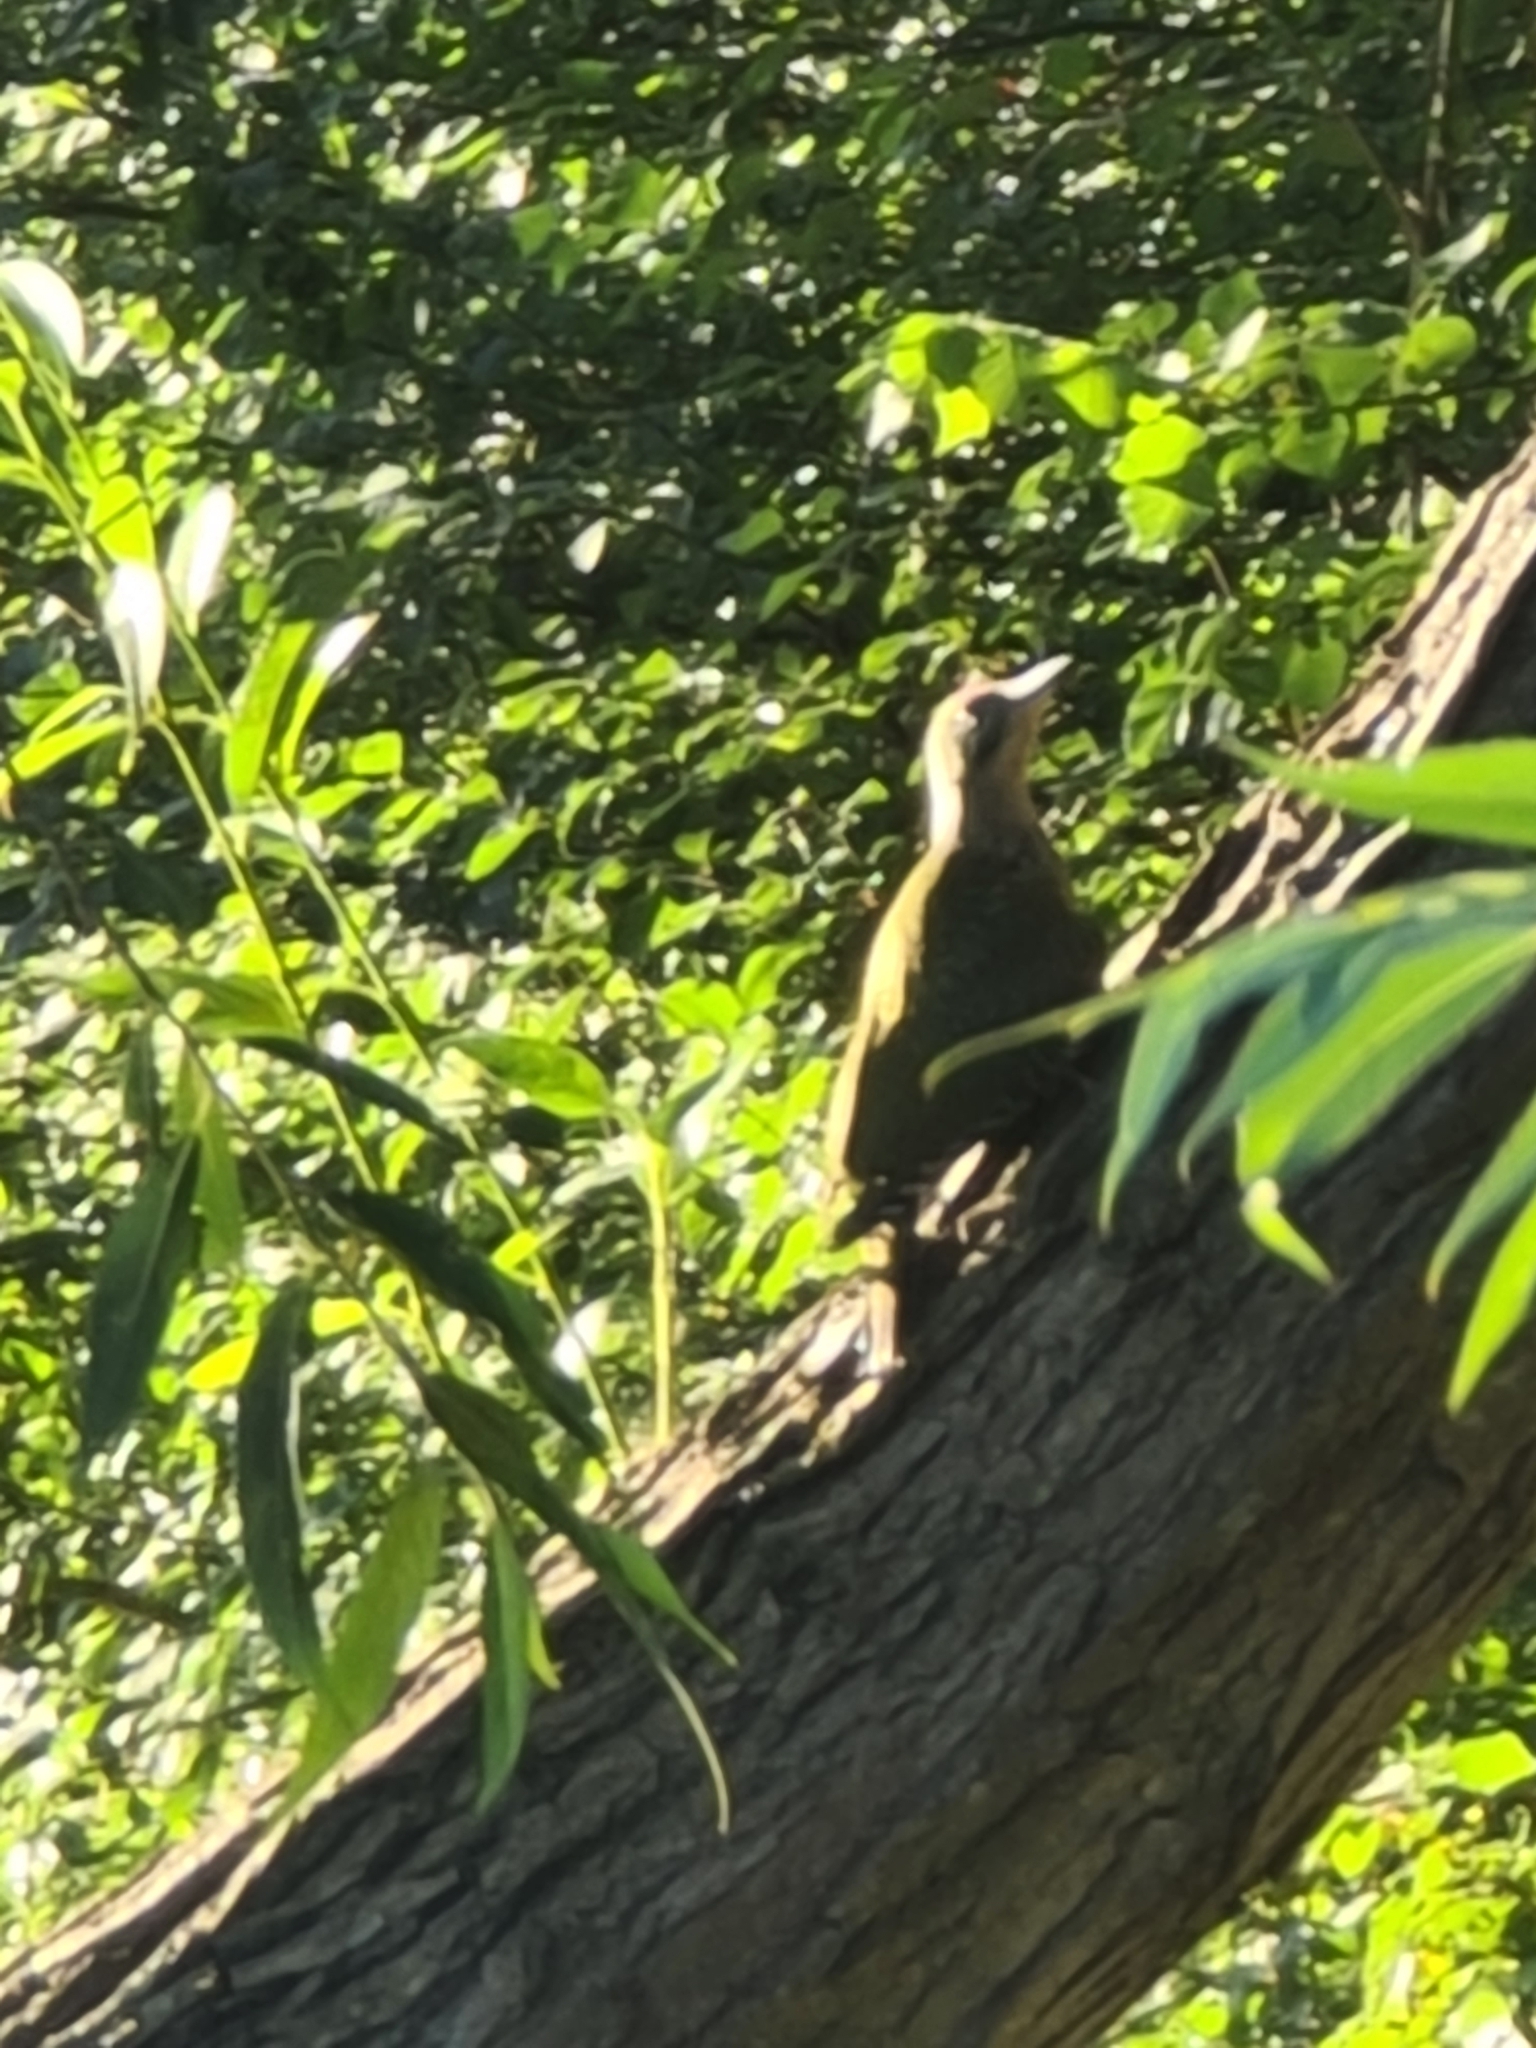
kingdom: Animalia
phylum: Chordata
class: Aves
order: Piciformes
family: Picidae
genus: Picus
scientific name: Picus viridis
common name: European green woodpecker
